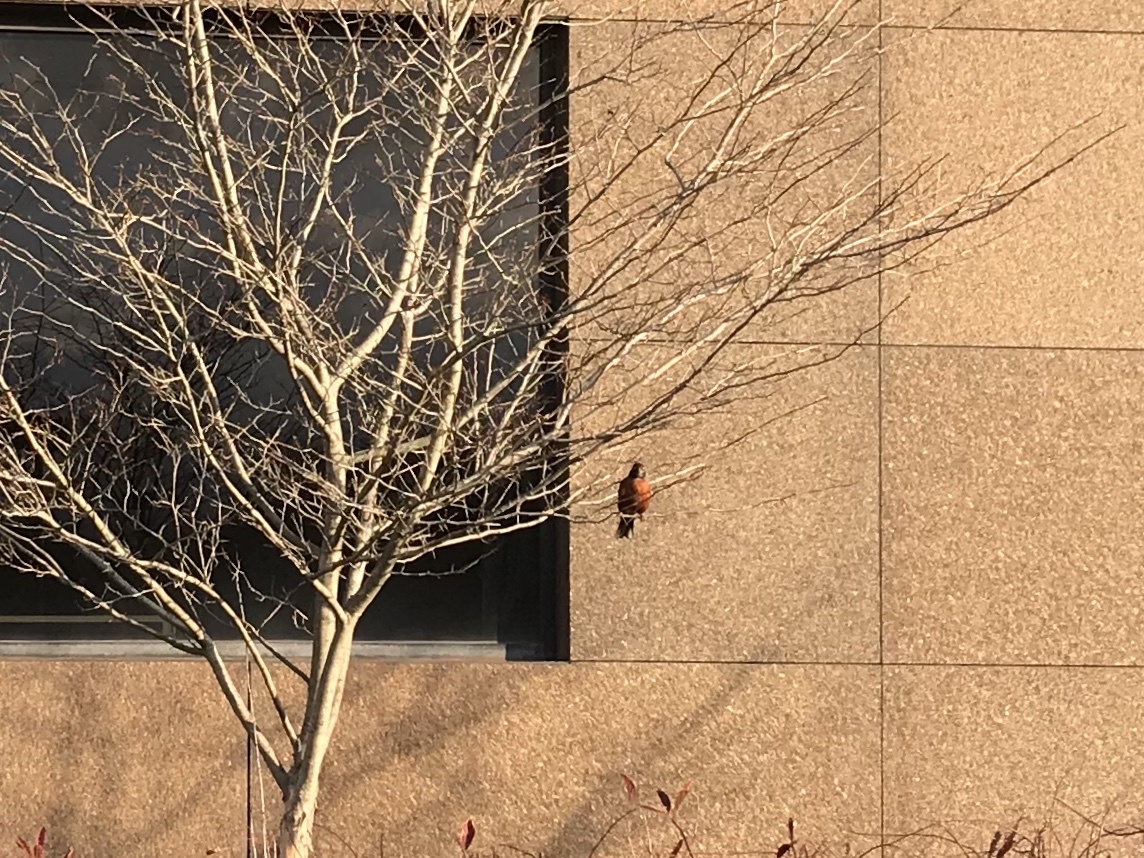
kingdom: Animalia
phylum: Chordata
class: Aves
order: Passeriformes
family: Turdidae
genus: Turdus
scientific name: Turdus migratorius
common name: American robin
